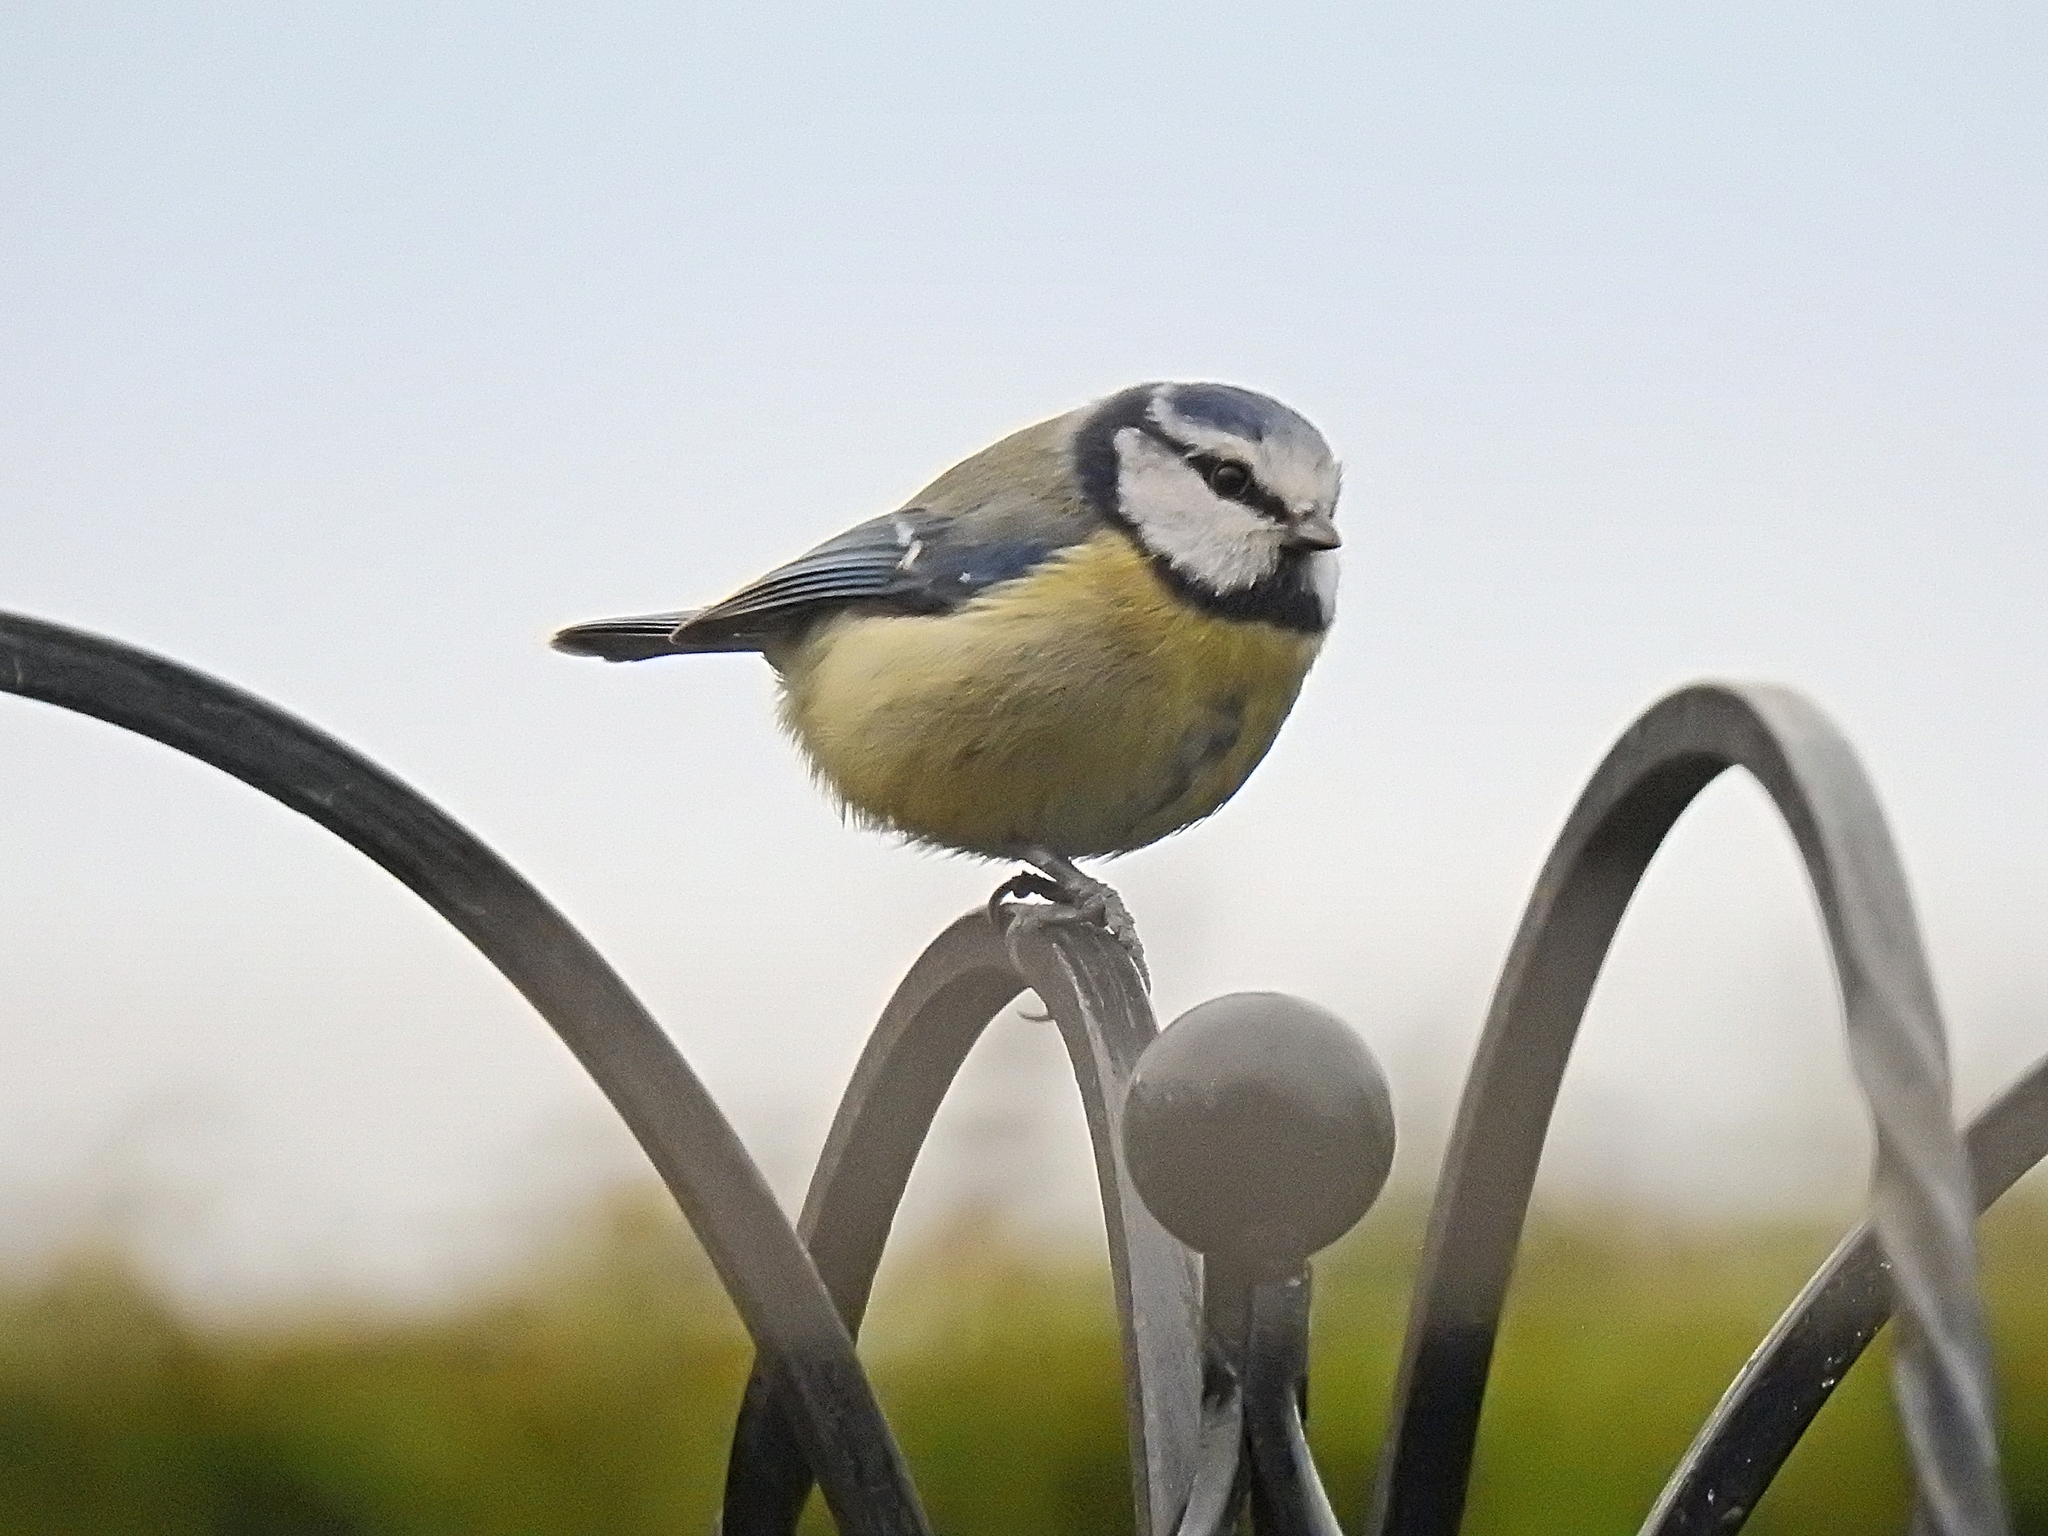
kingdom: Animalia
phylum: Chordata
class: Aves
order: Passeriformes
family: Paridae
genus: Cyanistes
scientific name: Cyanistes caeruleus
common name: Eurasian blue tit
